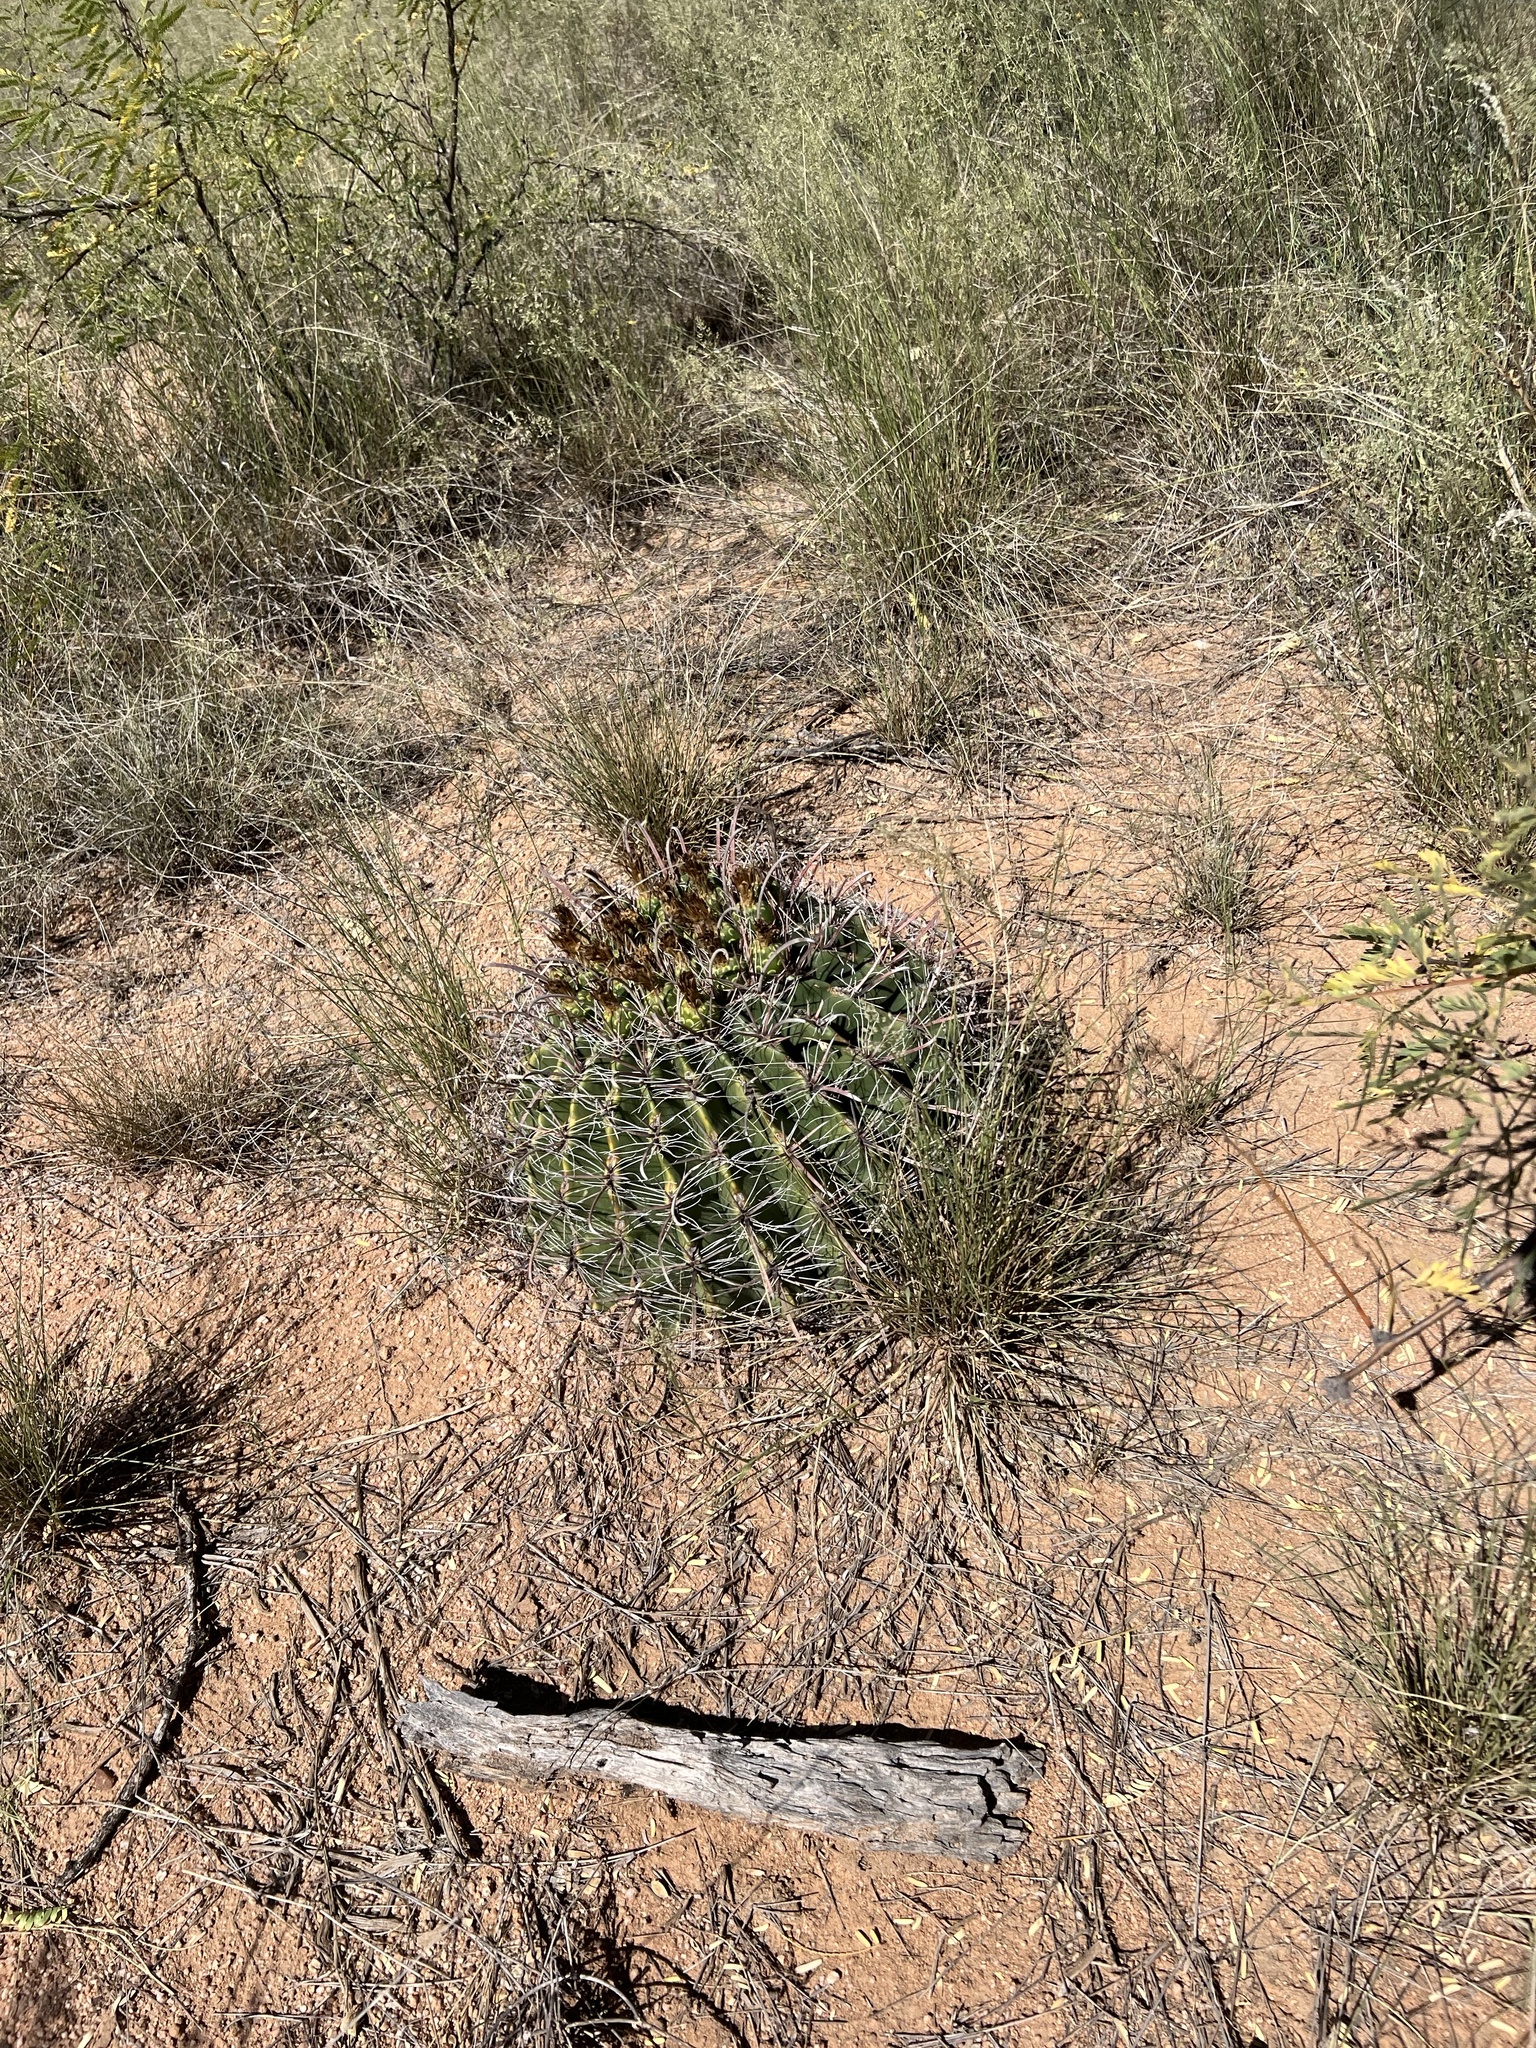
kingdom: Plantae
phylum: Tracheophyta
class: Magnoliopsida
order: Caryophyllales
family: Cactaceae
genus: Ferocactus
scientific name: Ferocactus wislizeni
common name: Candy barrel cactus
